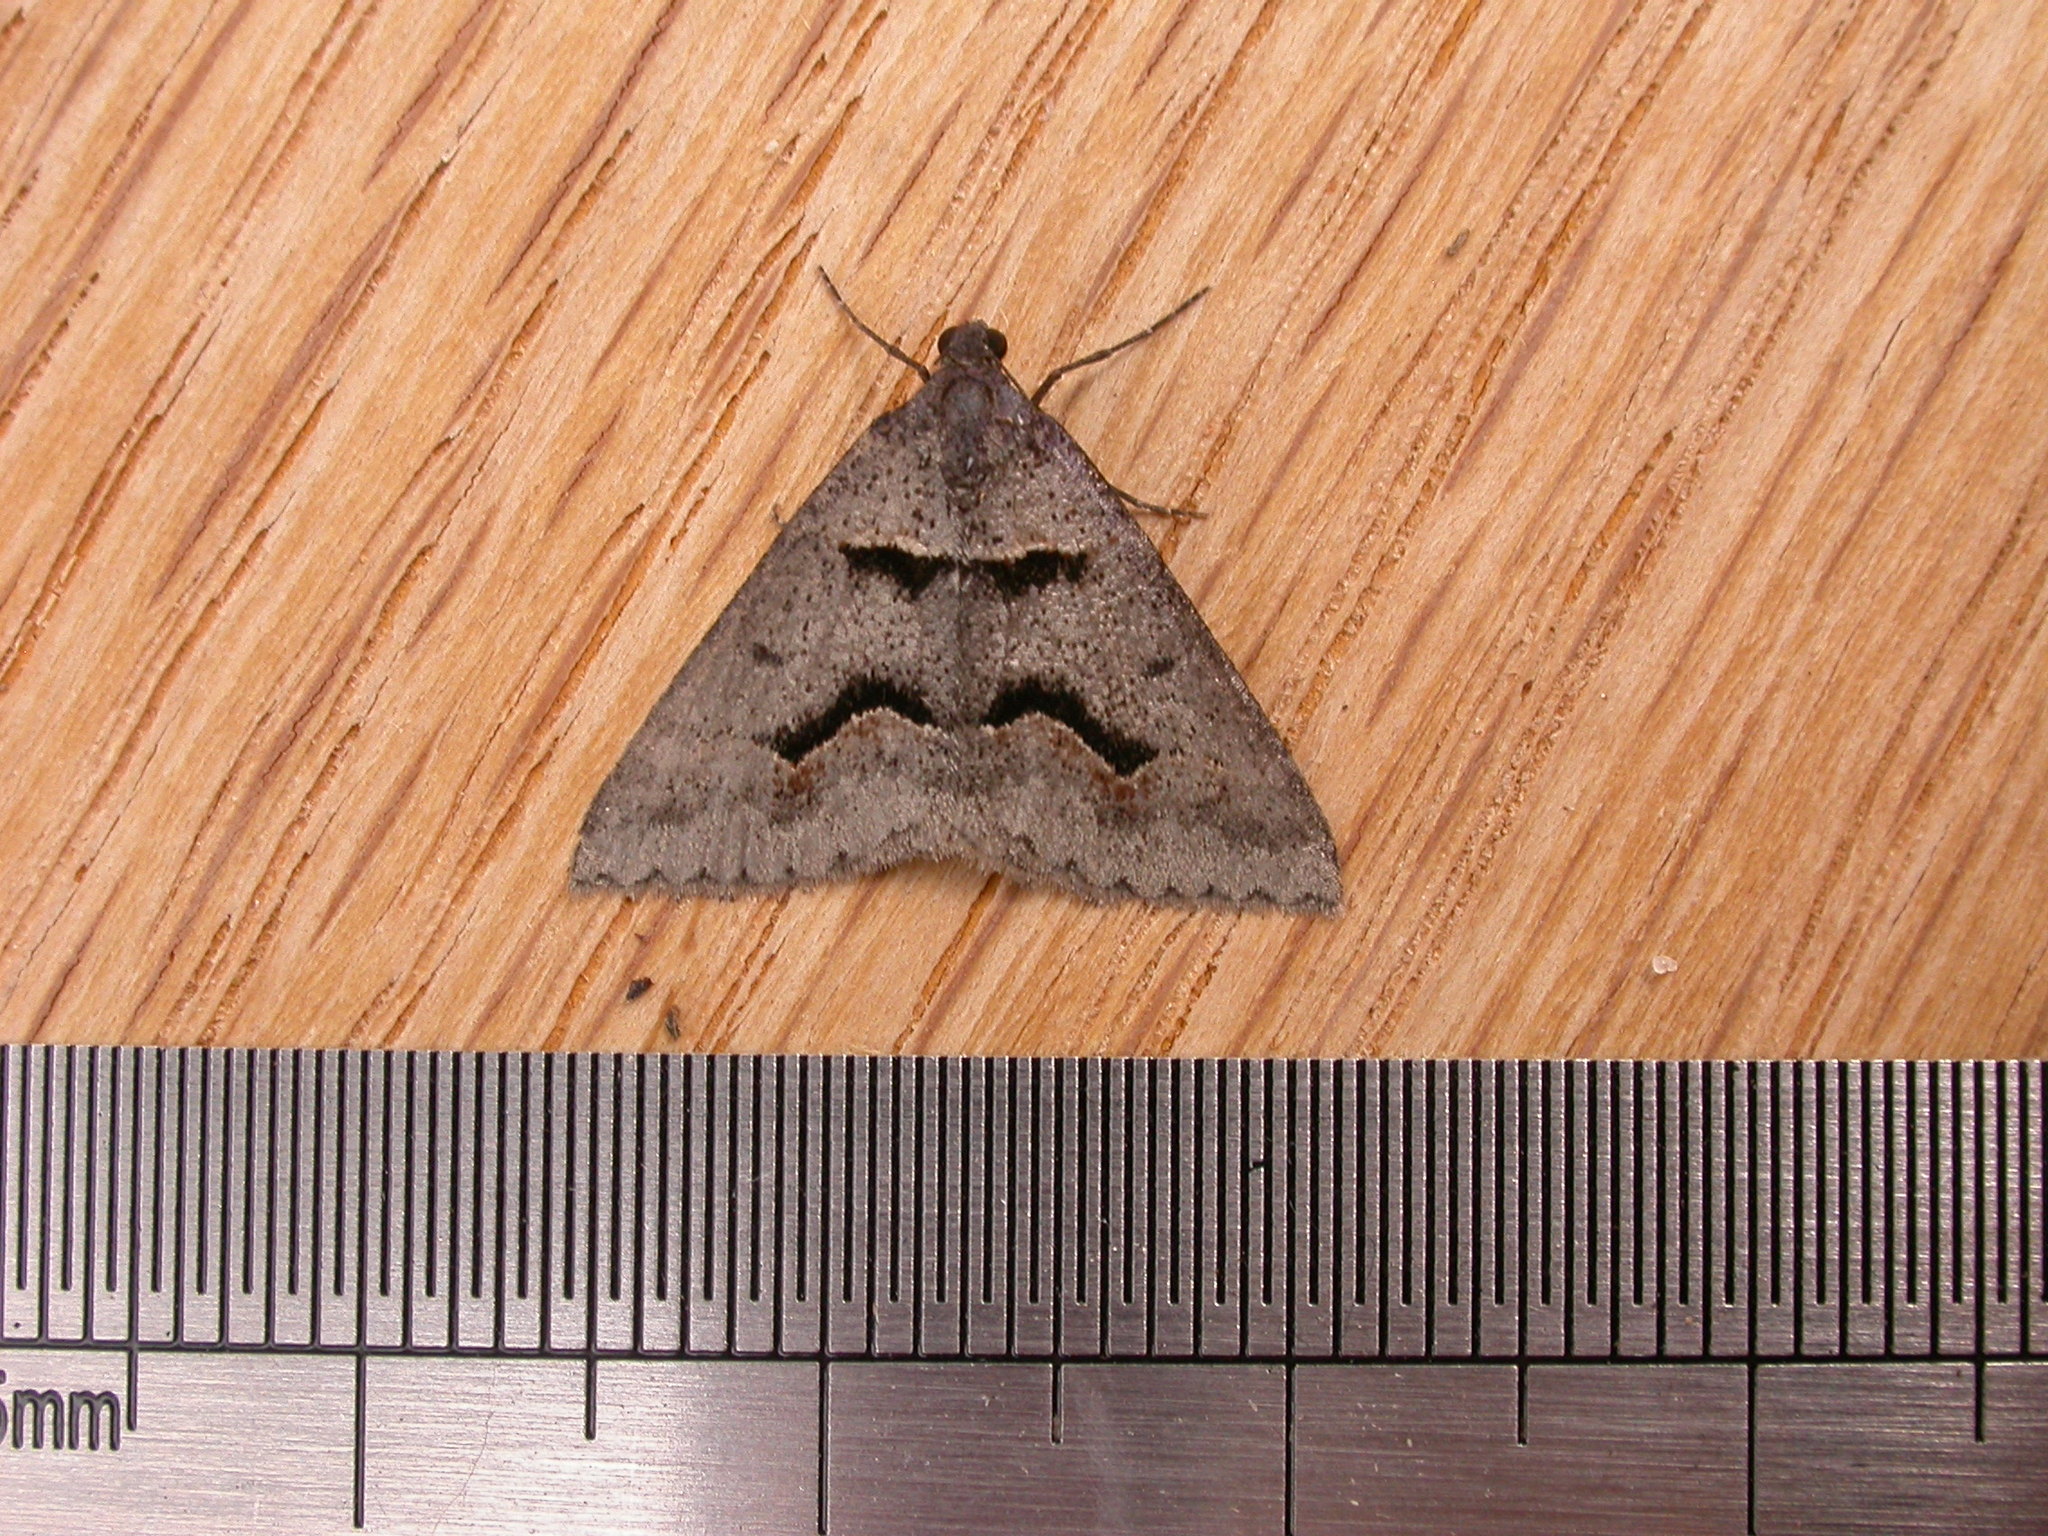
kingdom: Animalia
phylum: Arthropoda
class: Insecta
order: Lepidoptera
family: Geometridae
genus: Dichromodes
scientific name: Dichromodes atrosignata
